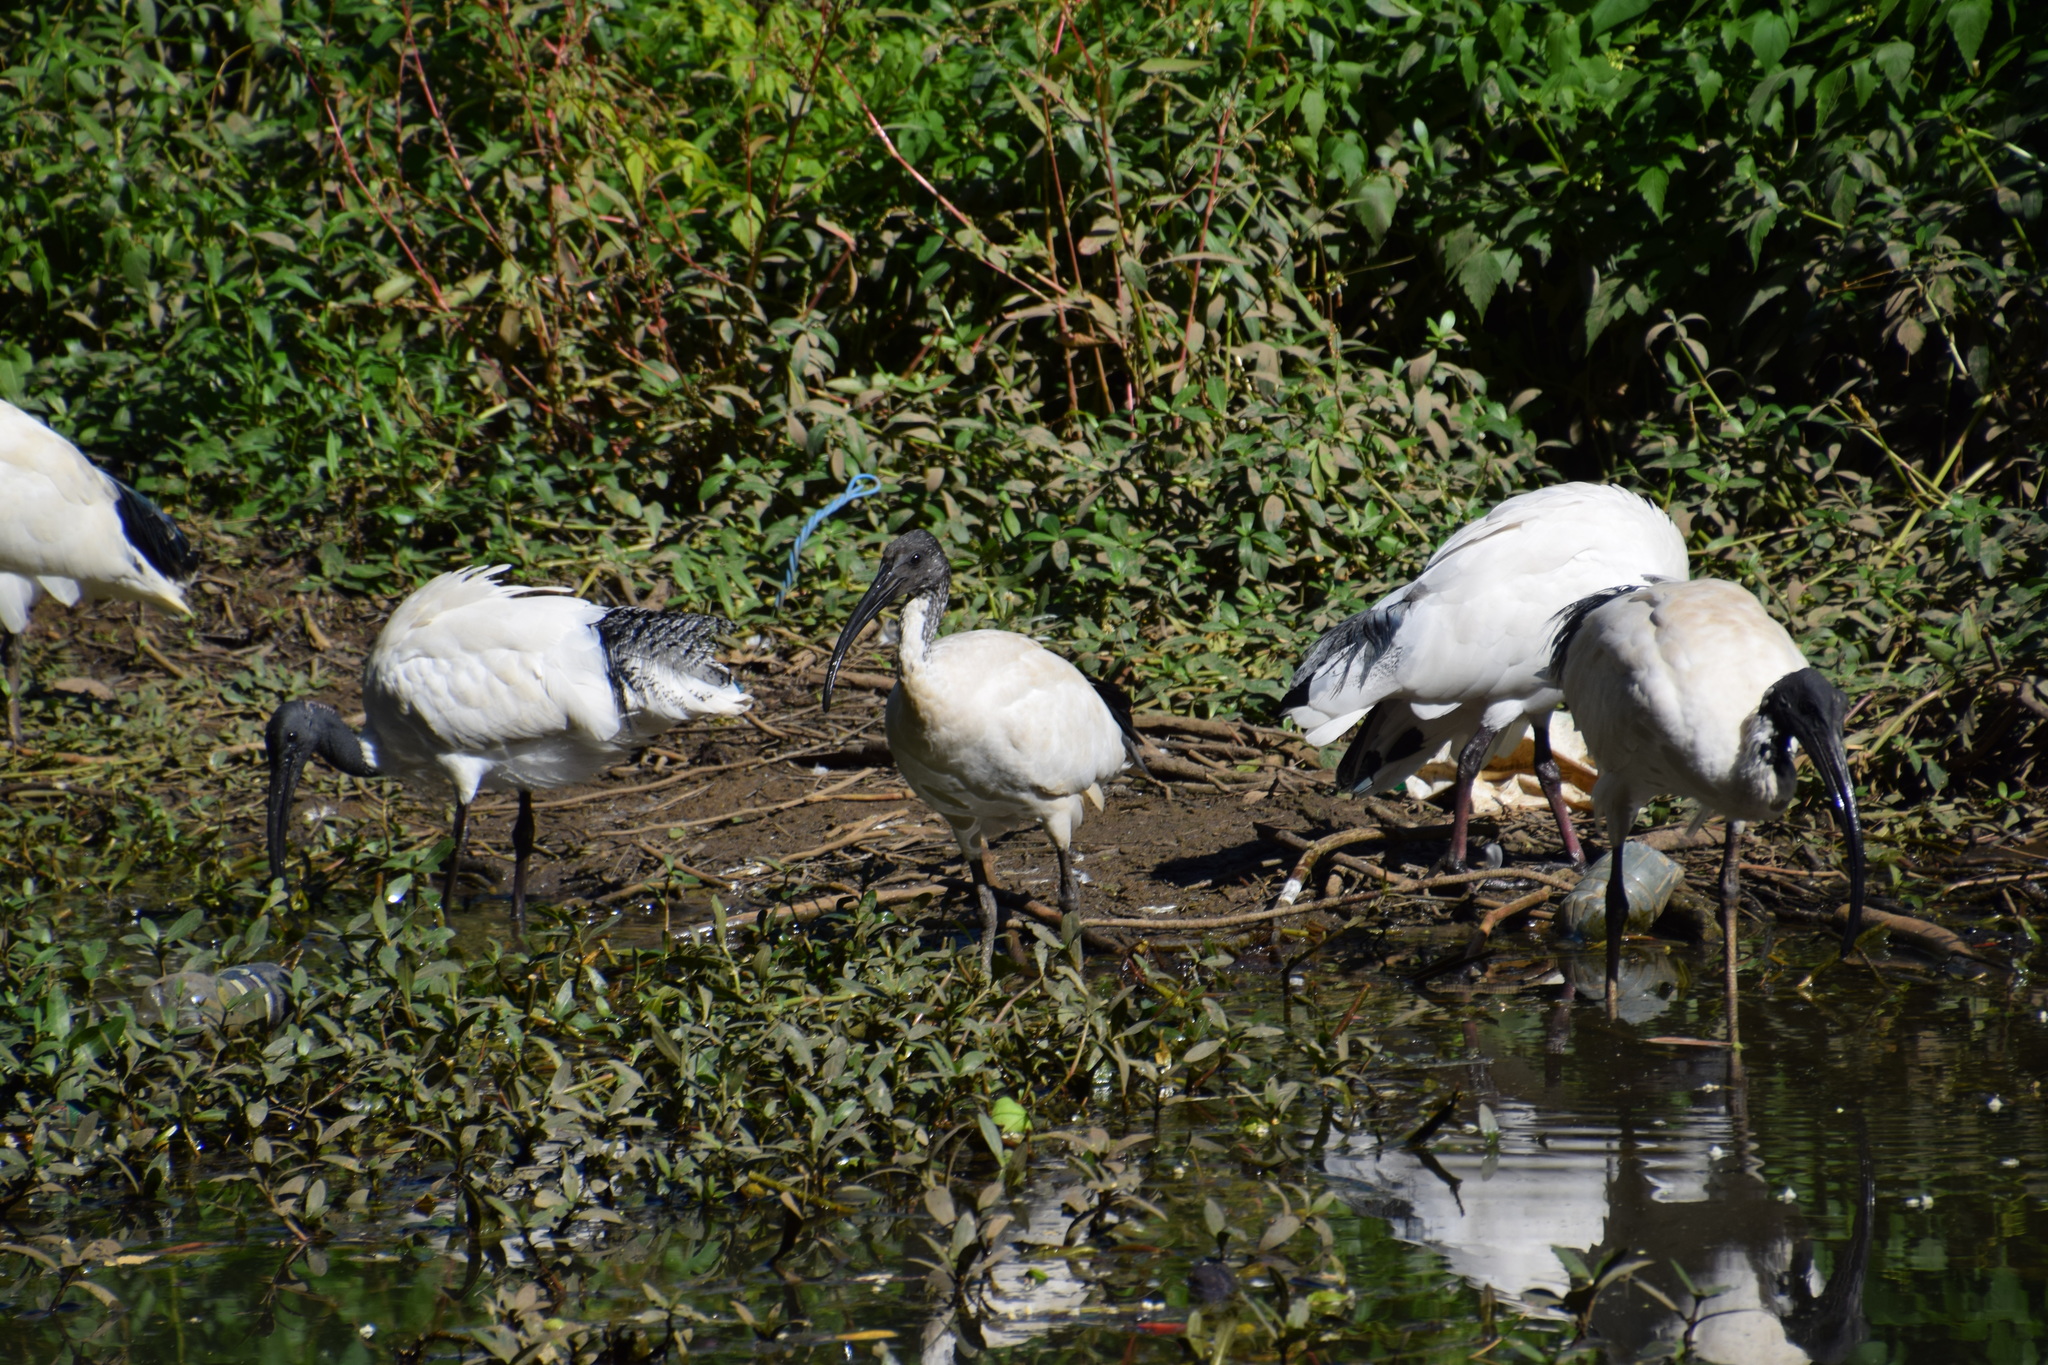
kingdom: Animalia
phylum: Chordata
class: Aves
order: Pelecaniformes
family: Threskiornithidae
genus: Threskiornis
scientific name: Threskiornis molucca
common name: Australian white ibis
